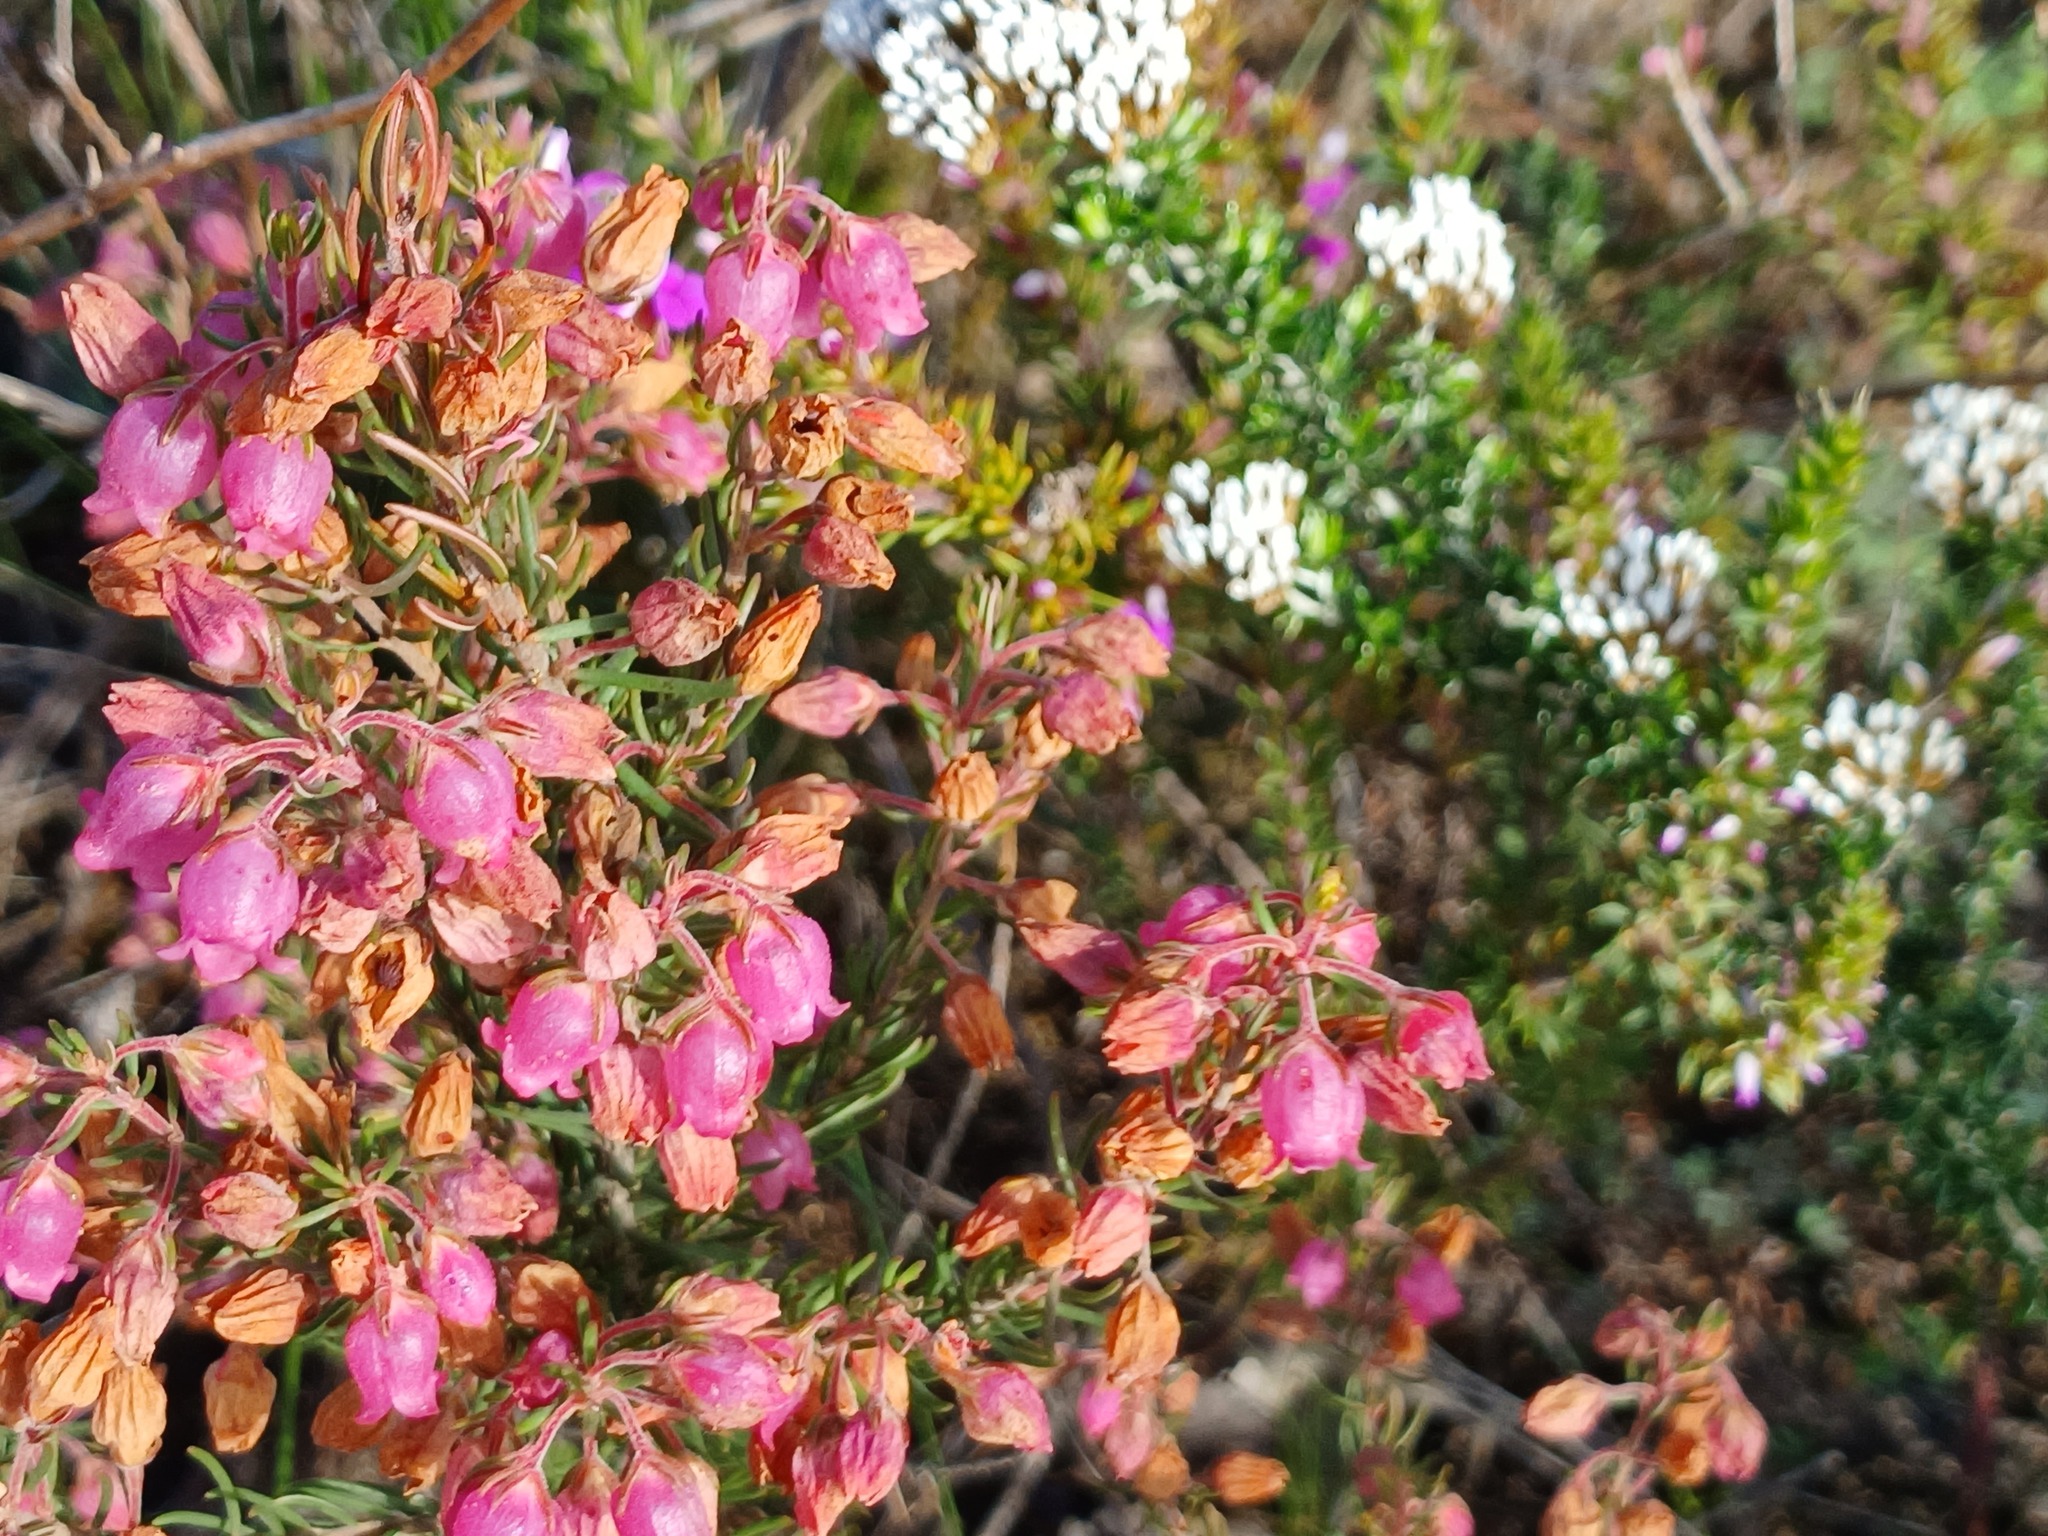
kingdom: Plantae
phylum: Tracheophyta
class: Magnoliopsida
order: Ericales
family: Ericaceae
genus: Erica
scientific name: Erica viscaria
